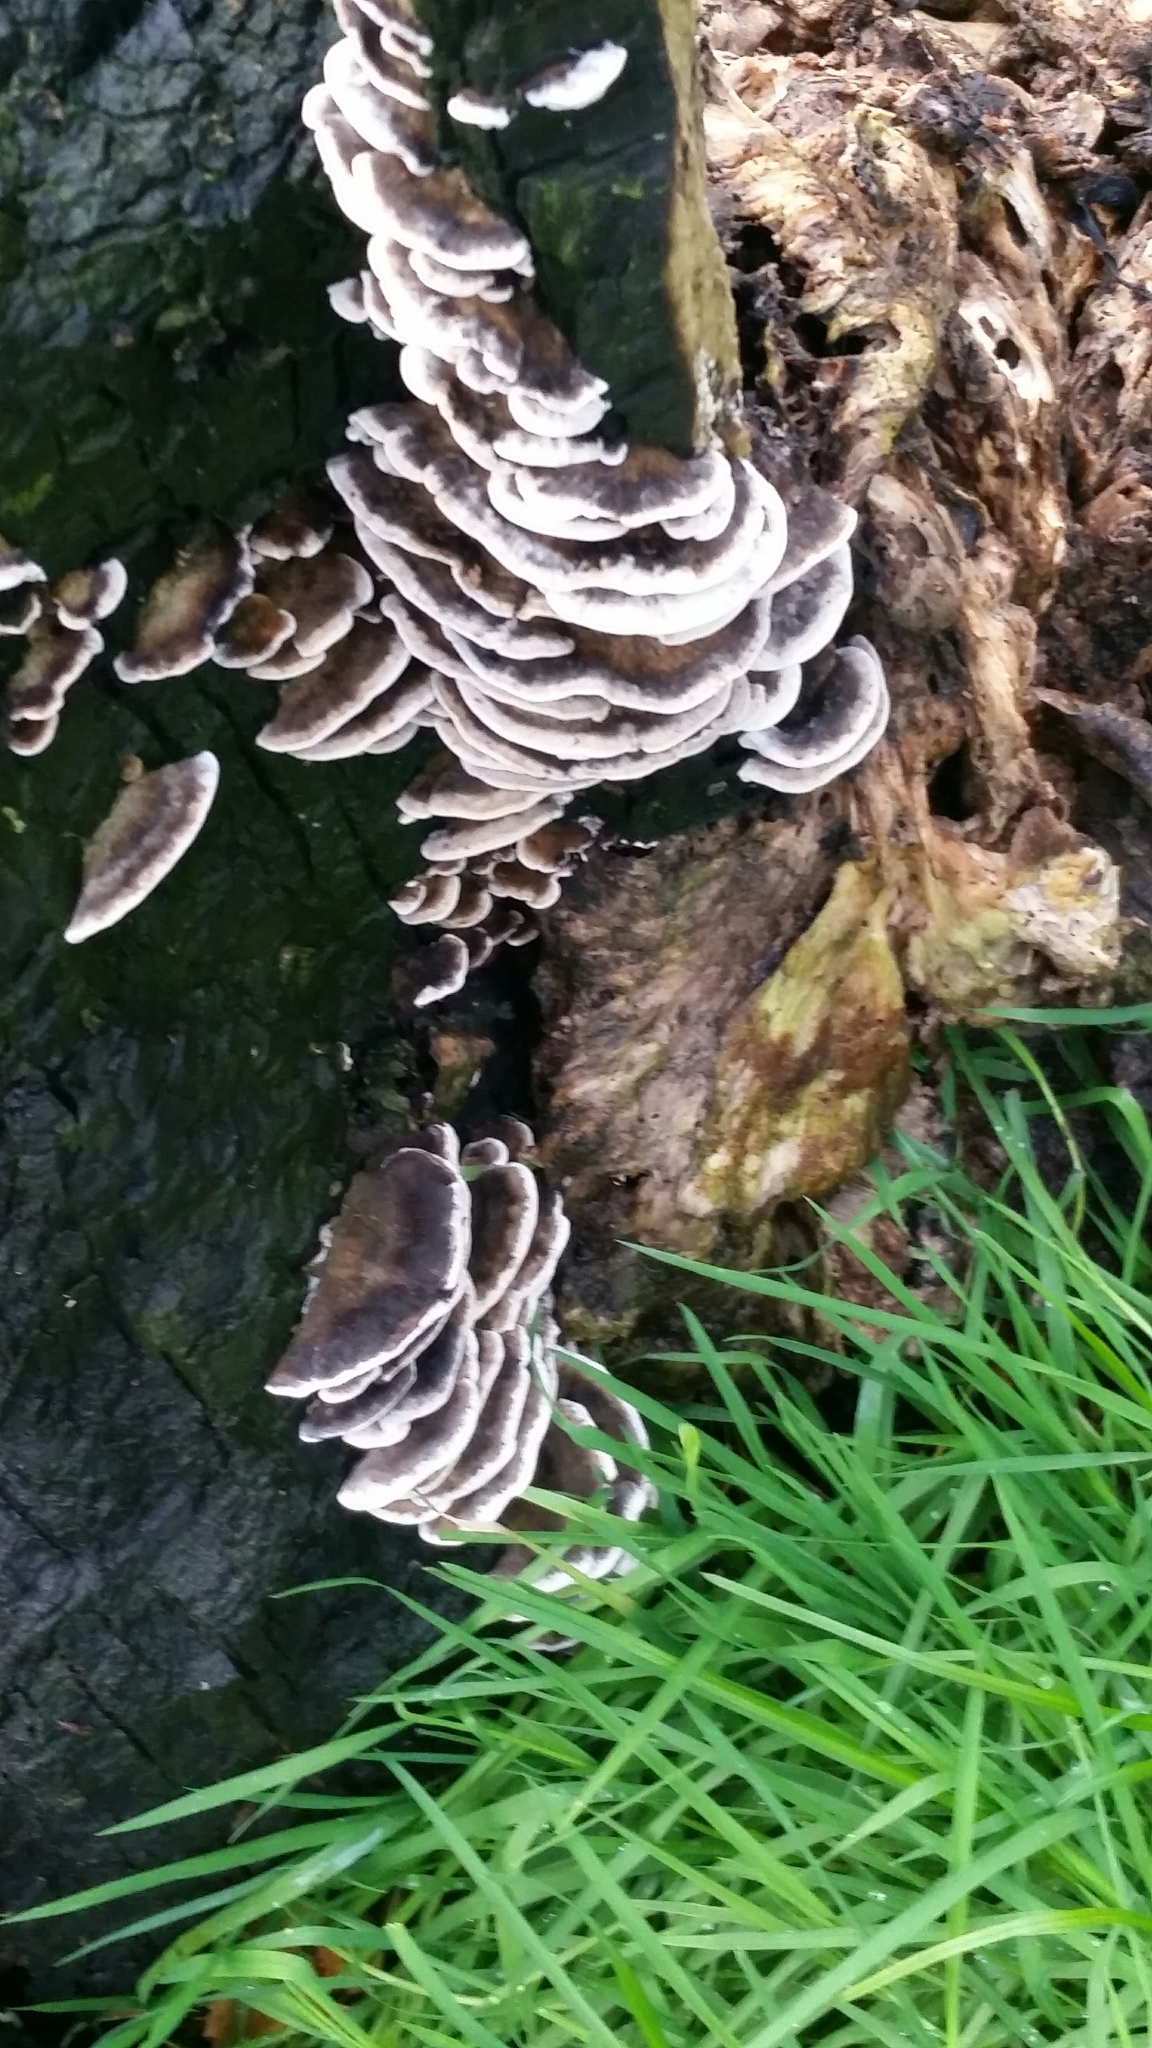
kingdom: Fungi
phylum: Basidiomycota
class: Agaricomycetes
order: Polyporales
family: Phanerochaetaceae
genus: Bjerkandera
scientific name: Bjerkandera adusta
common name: Smoky bracket
